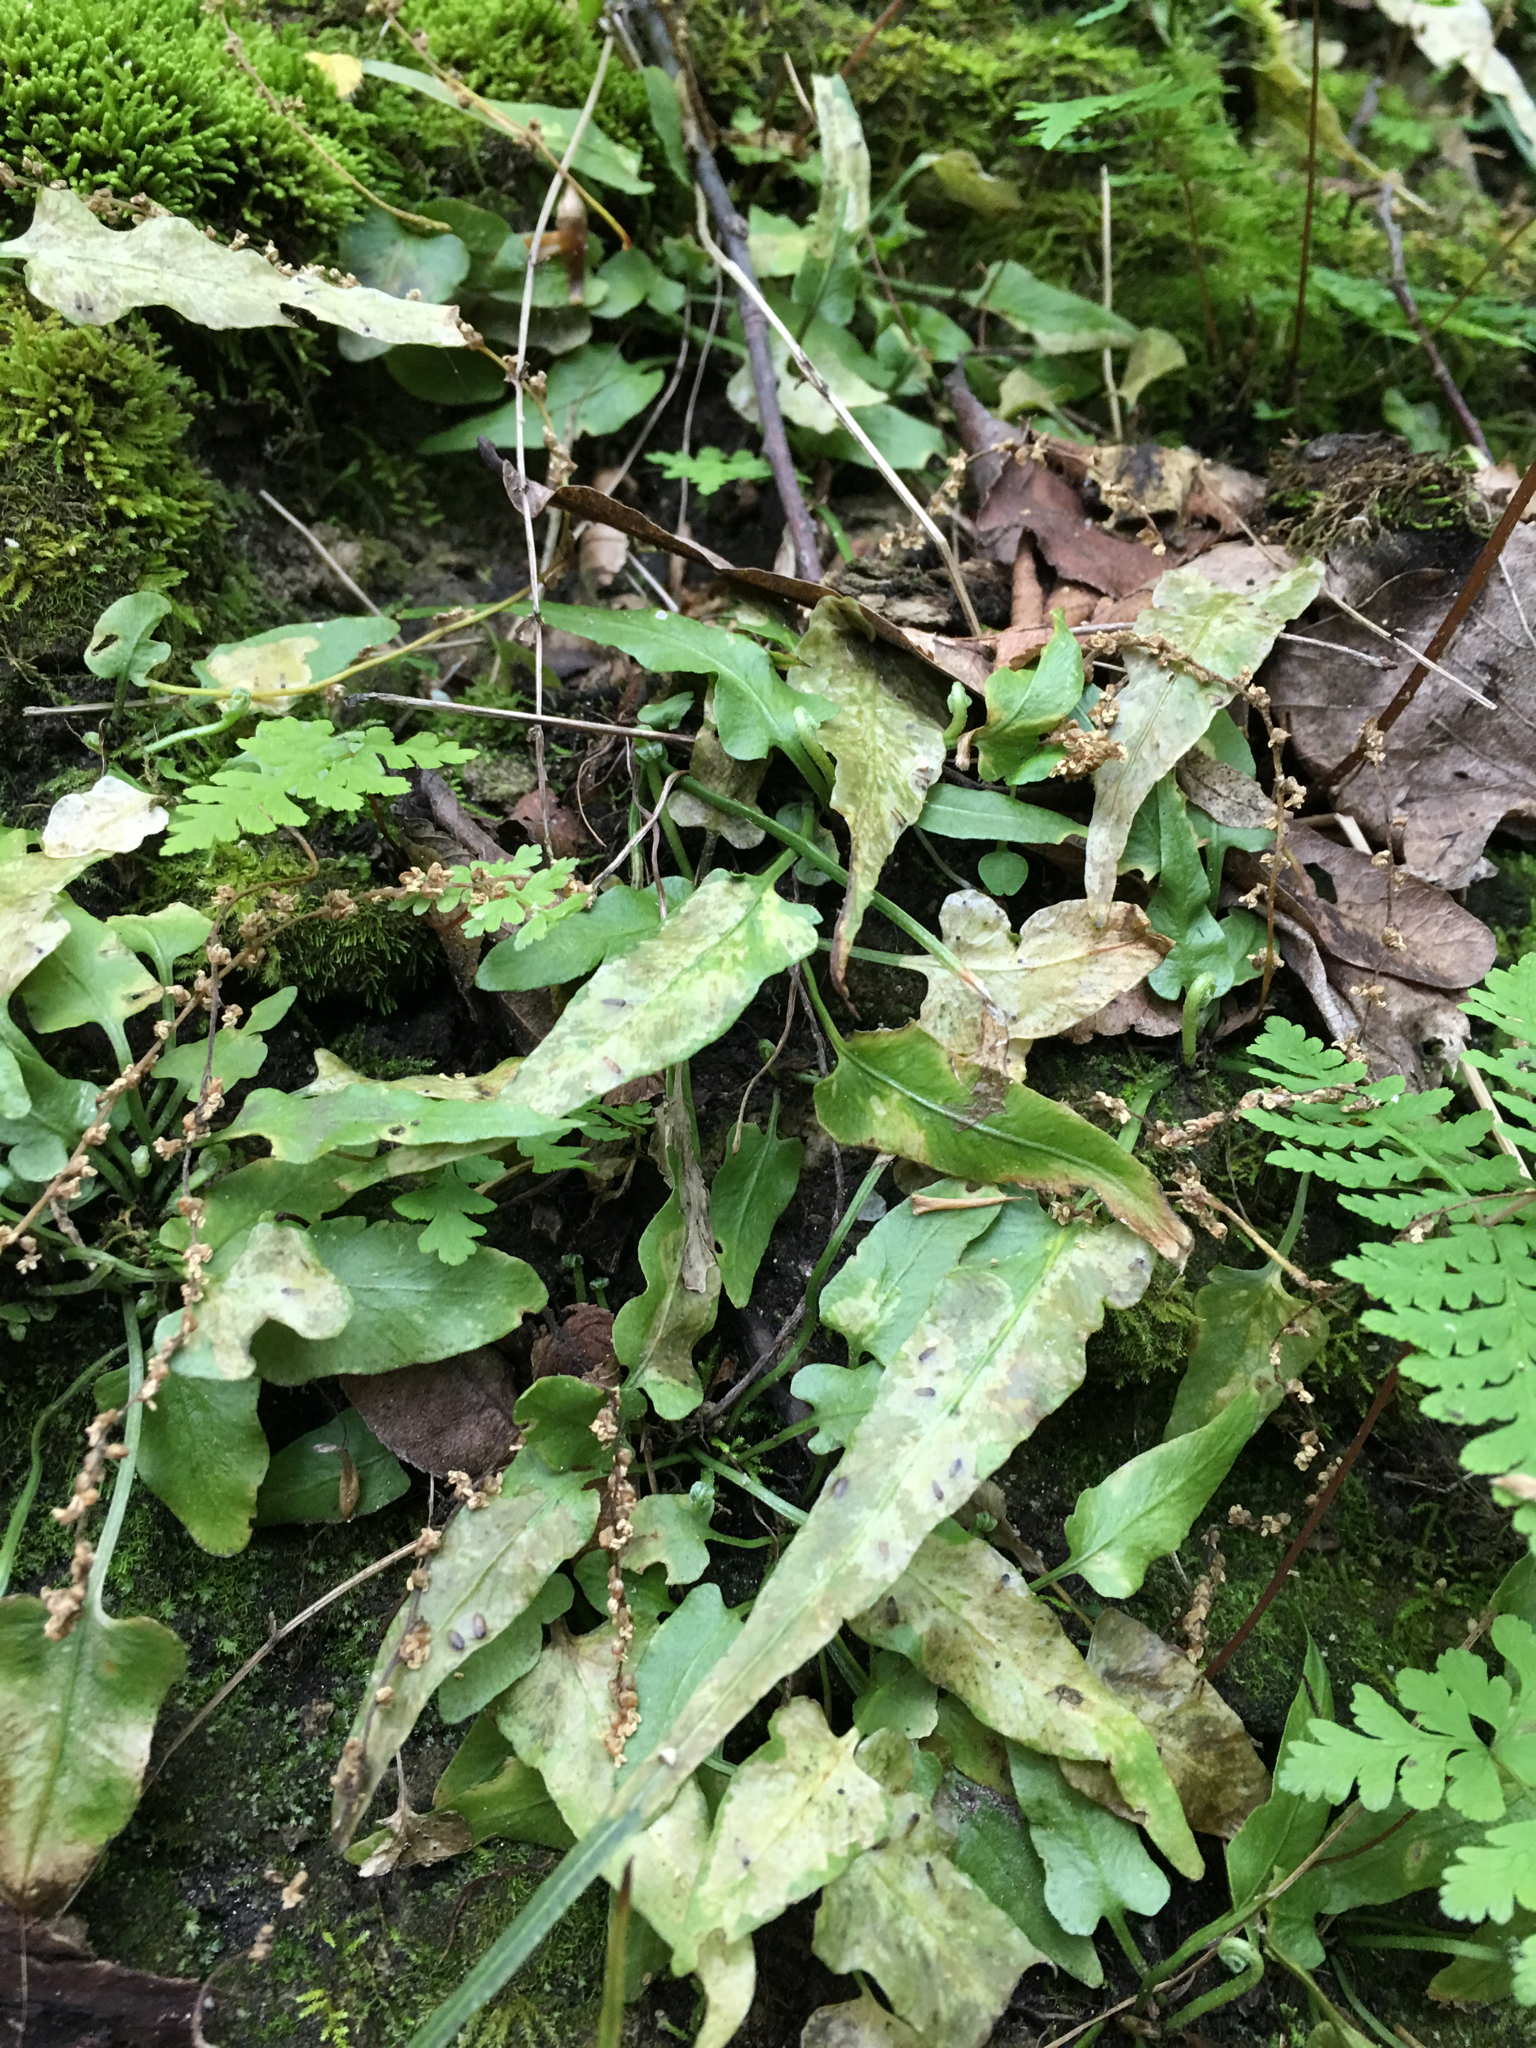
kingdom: Plantae
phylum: Tracheophyta
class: Polypodiopsida
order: Polypodiales
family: Aspleniaceae
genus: Asplenium
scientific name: Asplenium rhizophyllum
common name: Walking fern
